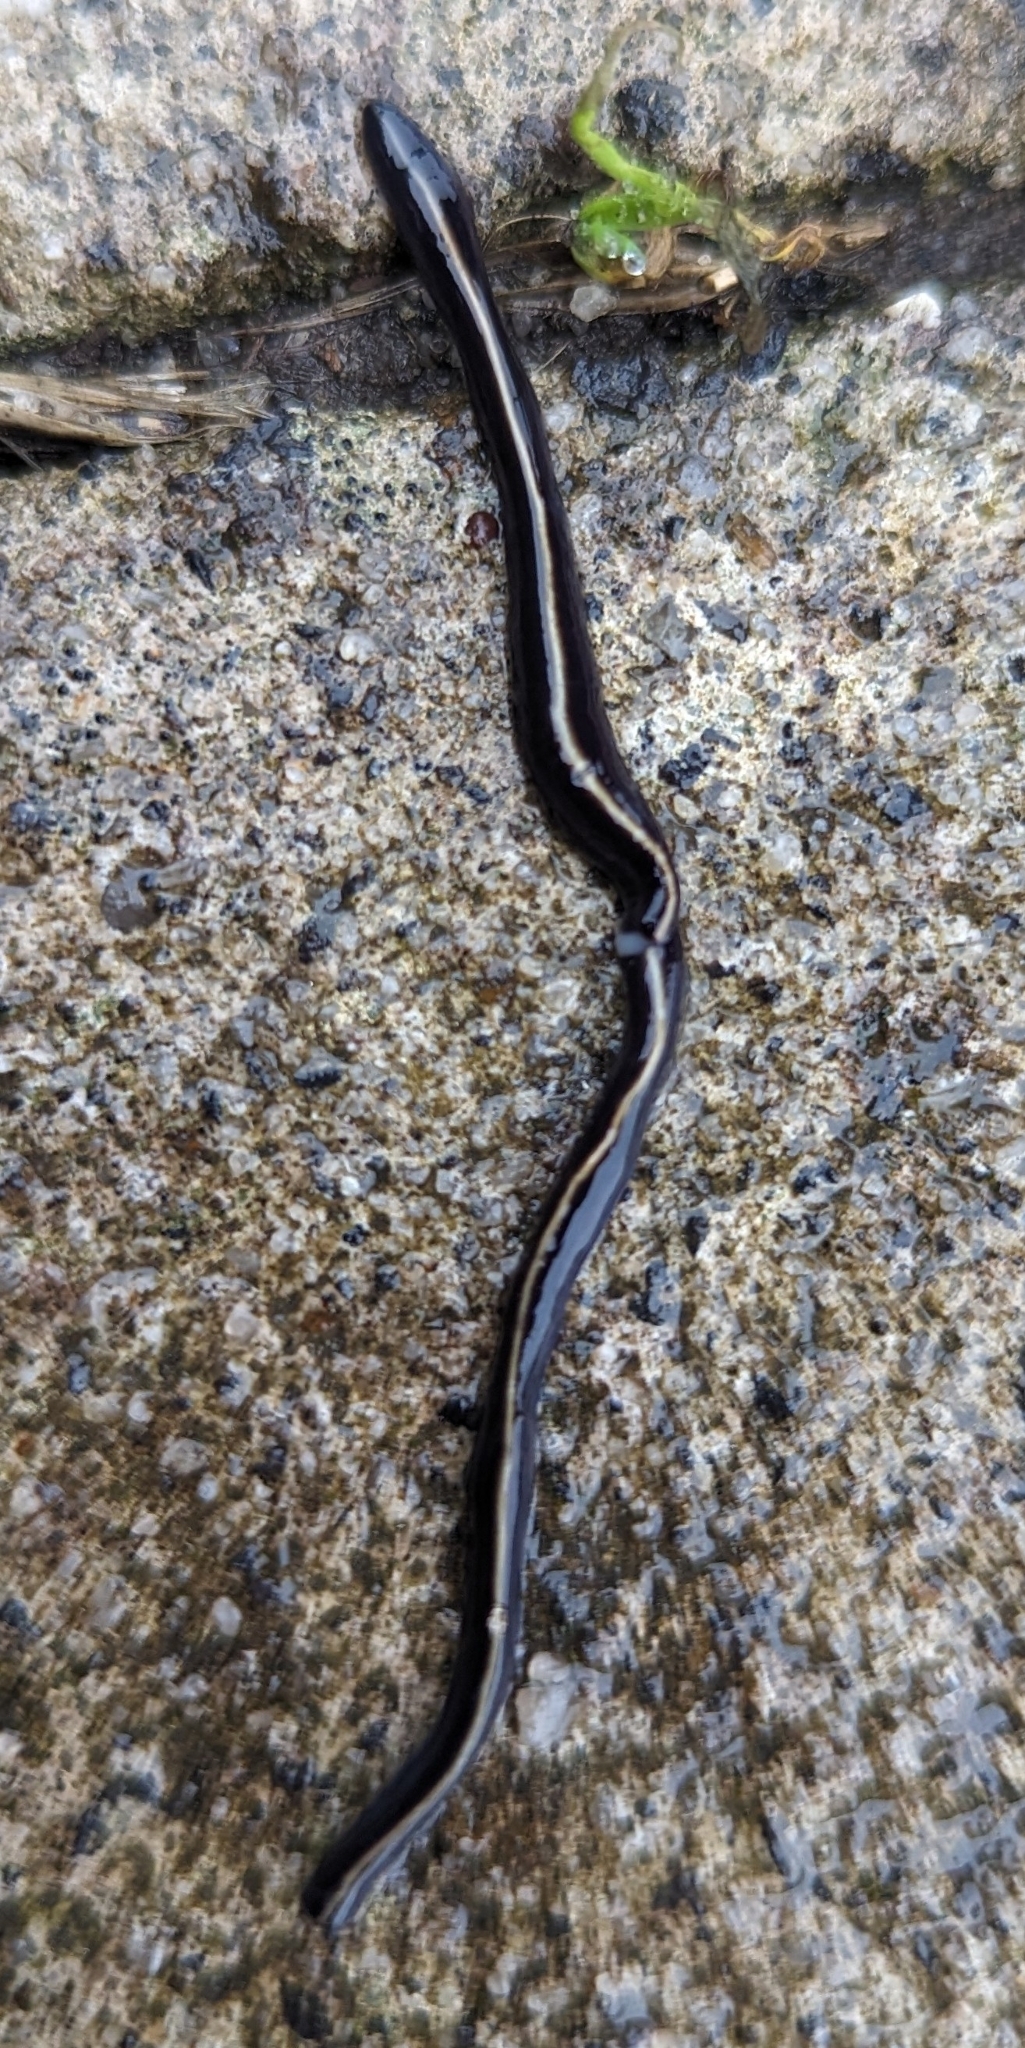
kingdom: Animalia
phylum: Platyhelminthes
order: Tricladida
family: Geoplanidae
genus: Caenoplana
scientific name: Caenoplana coerulea
